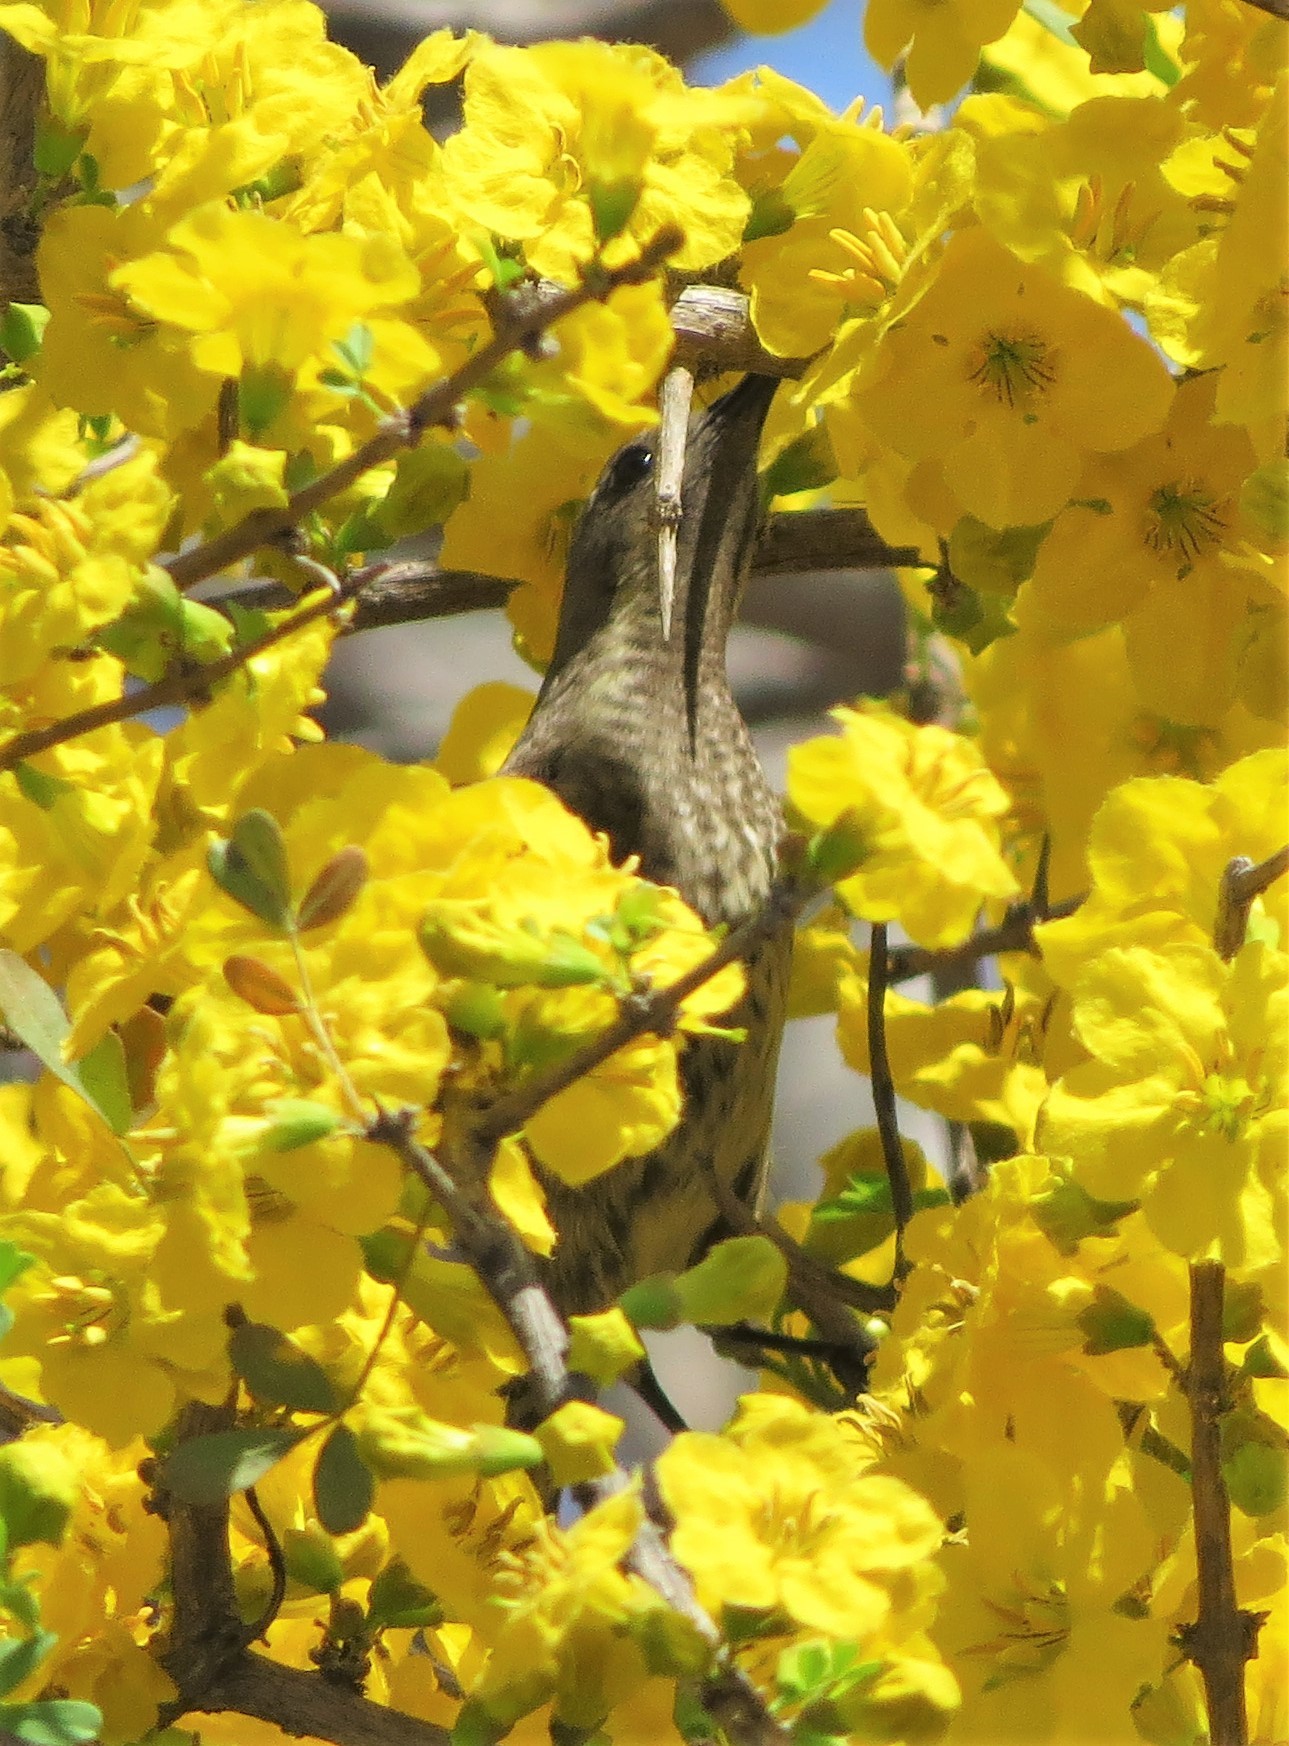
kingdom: Animalia
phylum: Chordata
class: Aves
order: Passeriformes
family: Nectariniidae
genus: Chalcomitra
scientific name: Chalcomitra senegalensis
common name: Scarlet-chested sunbird
